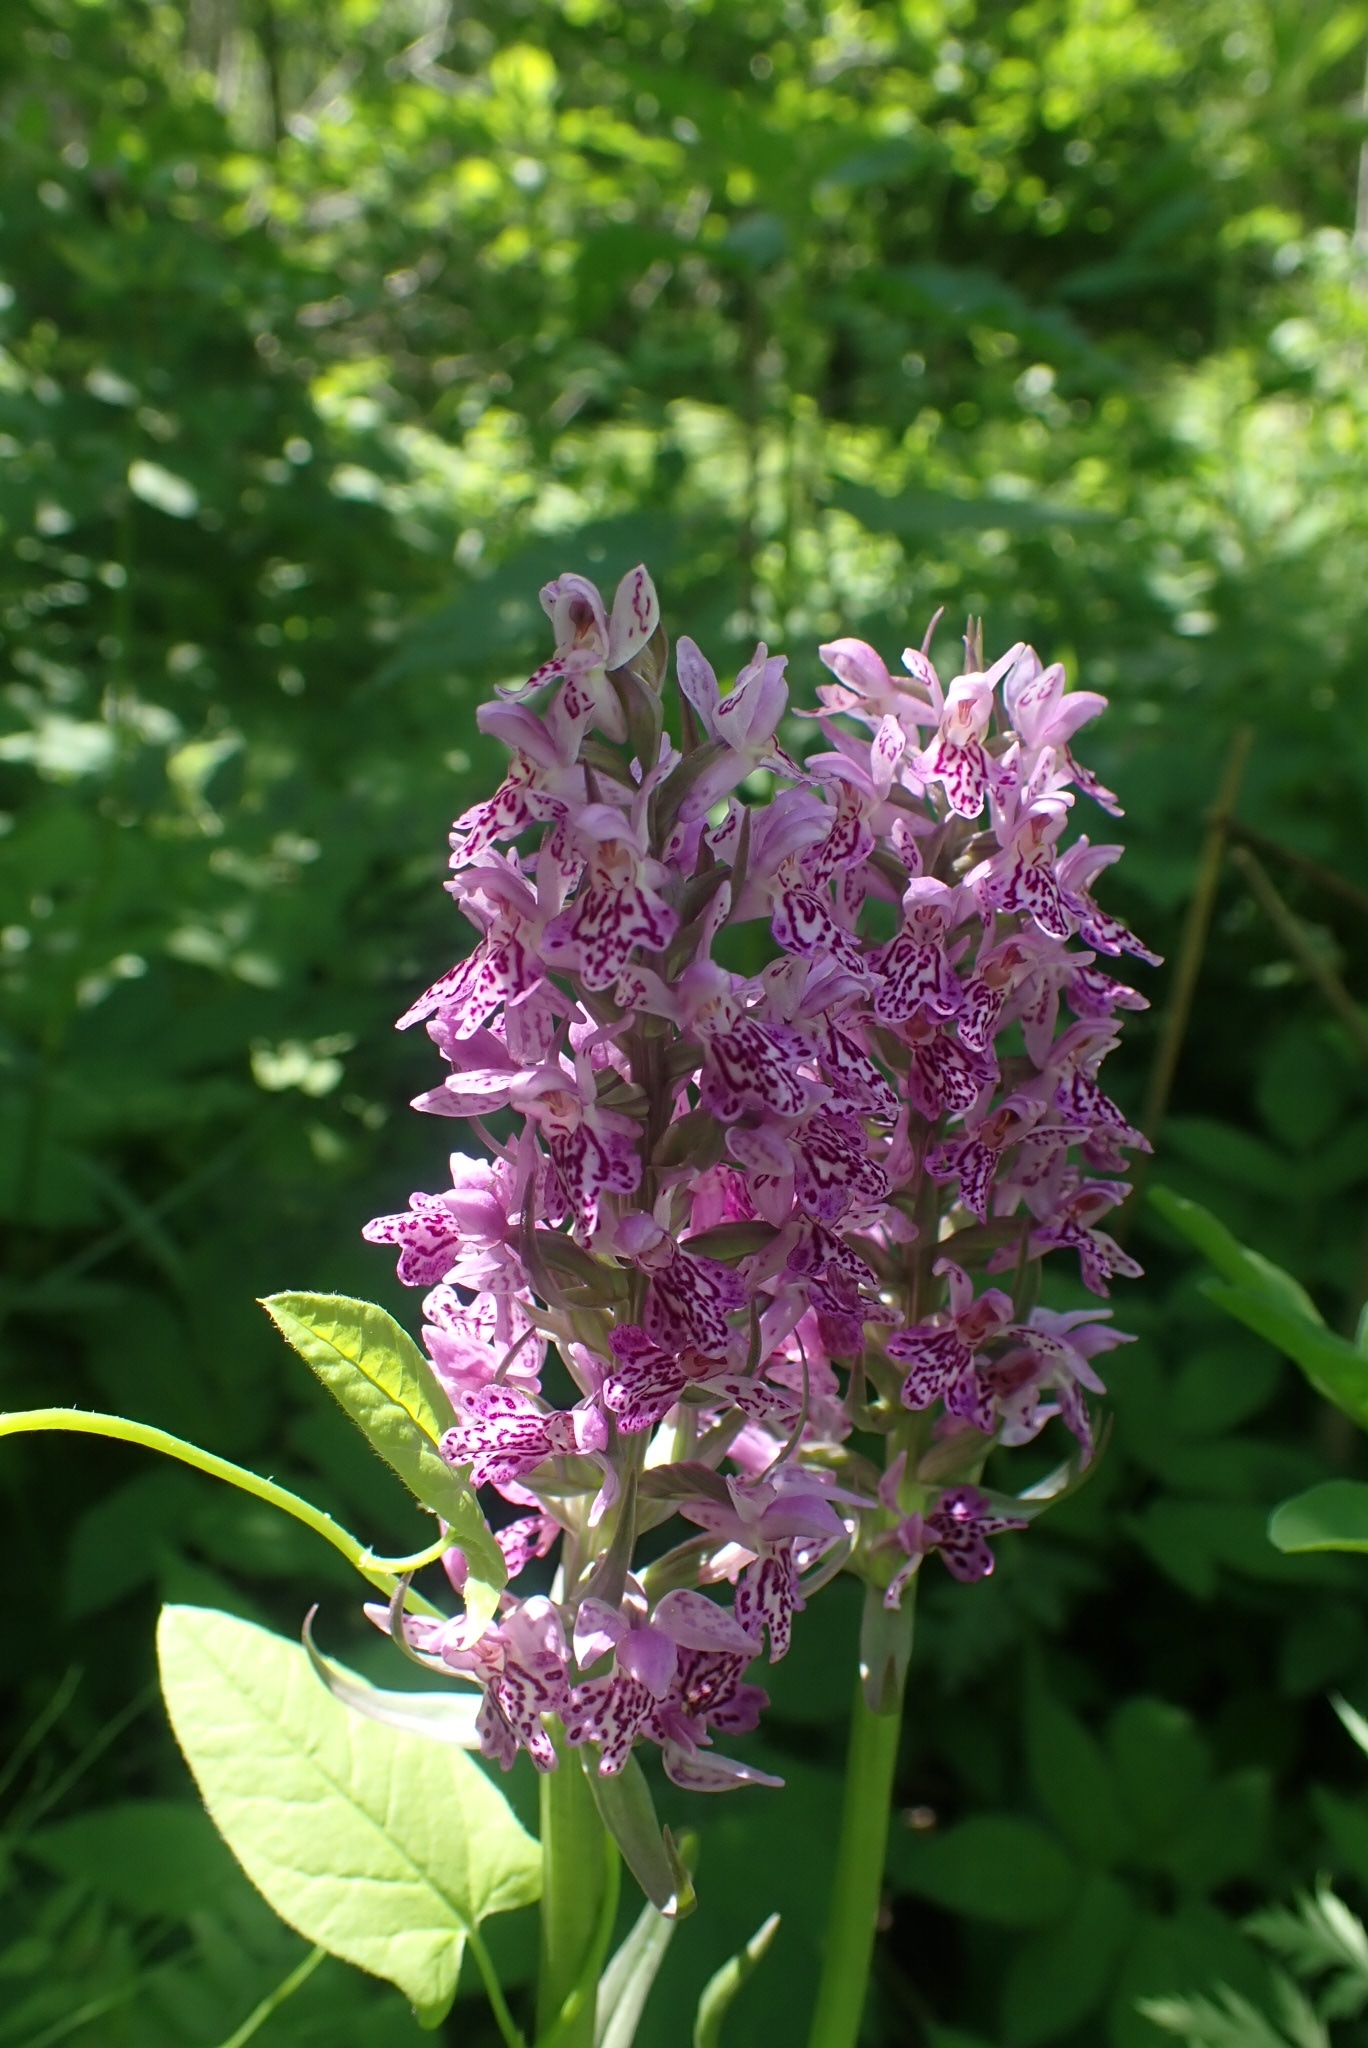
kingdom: Plantae
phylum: Tracheophyta
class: Liliopsida
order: Asparagales
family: Orchidaceae
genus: Dactylorhiza
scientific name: Dactylorhiza sibirica
